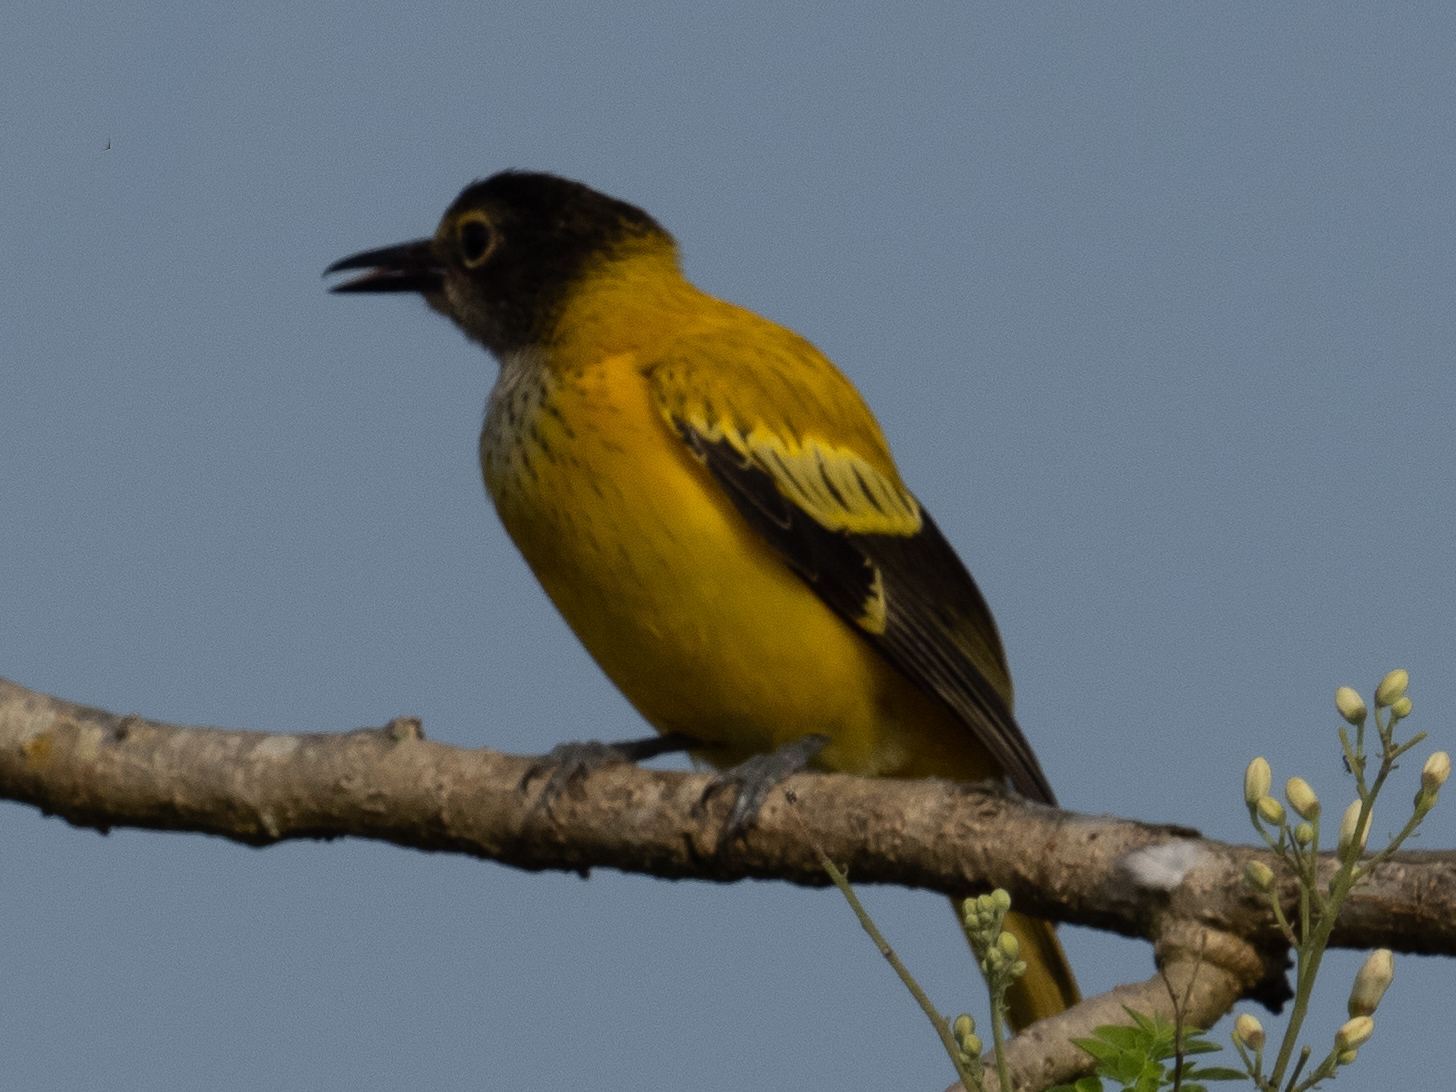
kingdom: Animalia
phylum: Chordata
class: Aves
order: Passeriformes
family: Oriolidae
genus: Oriolus
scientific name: Oriolus xanthornus
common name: Black-hooded oriole
